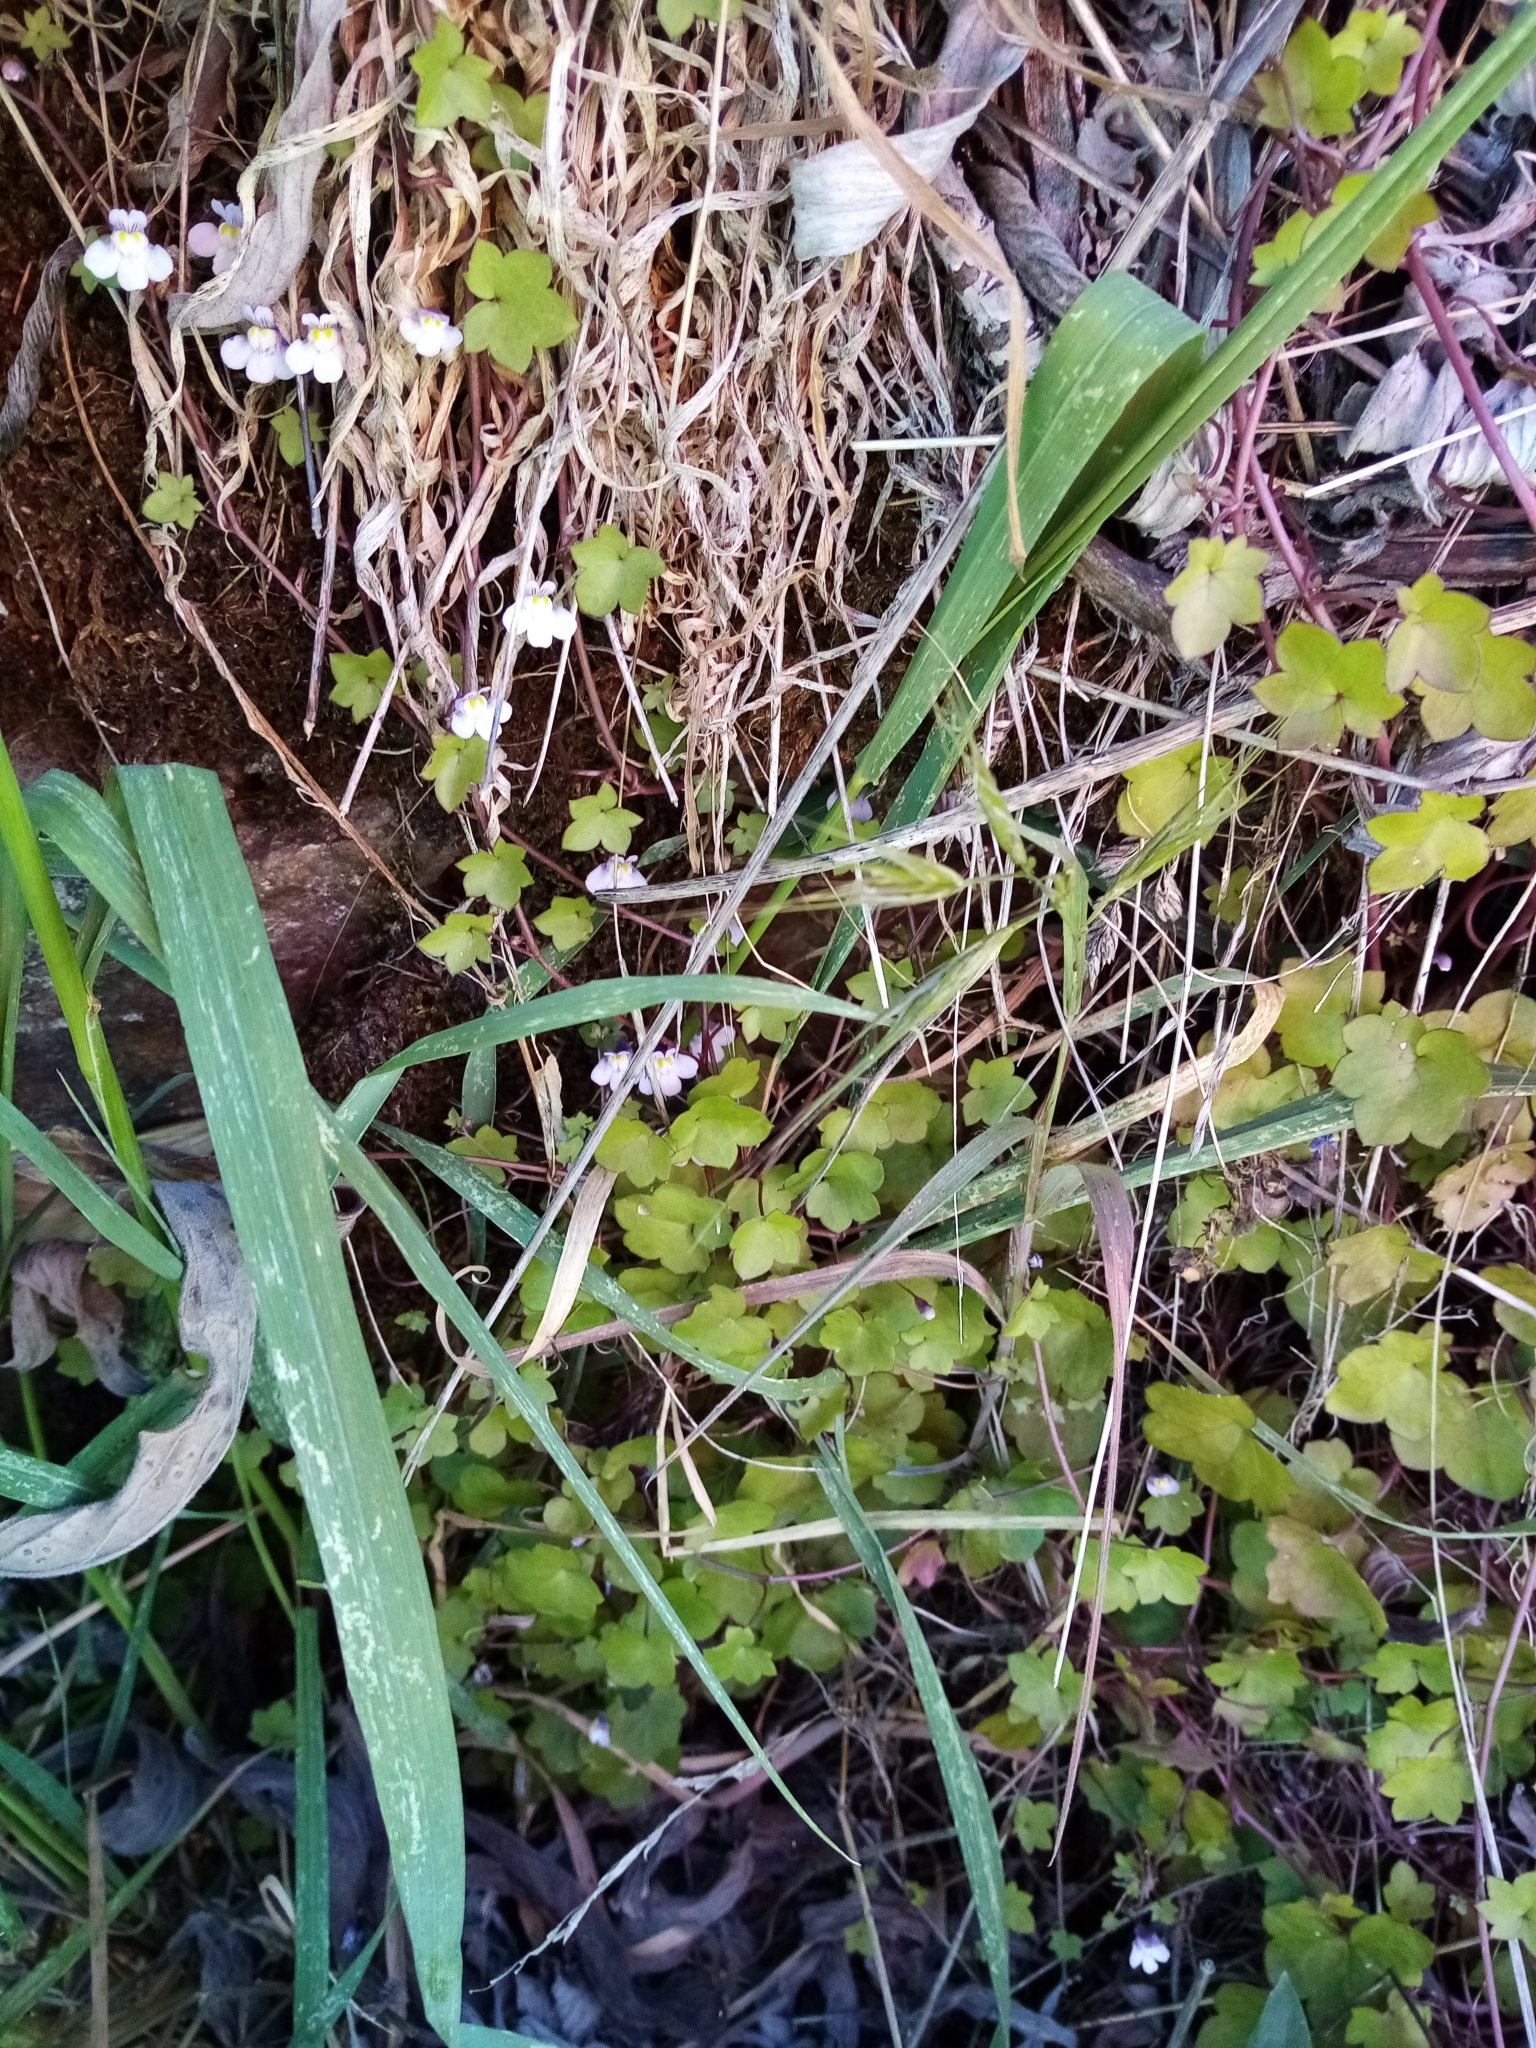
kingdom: Plantae
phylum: Tracheophyta
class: Magnoliopsida
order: Lamiales
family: Plantaginaceae
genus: Cymbalaria
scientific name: Cymbalaria muralis
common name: Ivy-leaved toadflax
